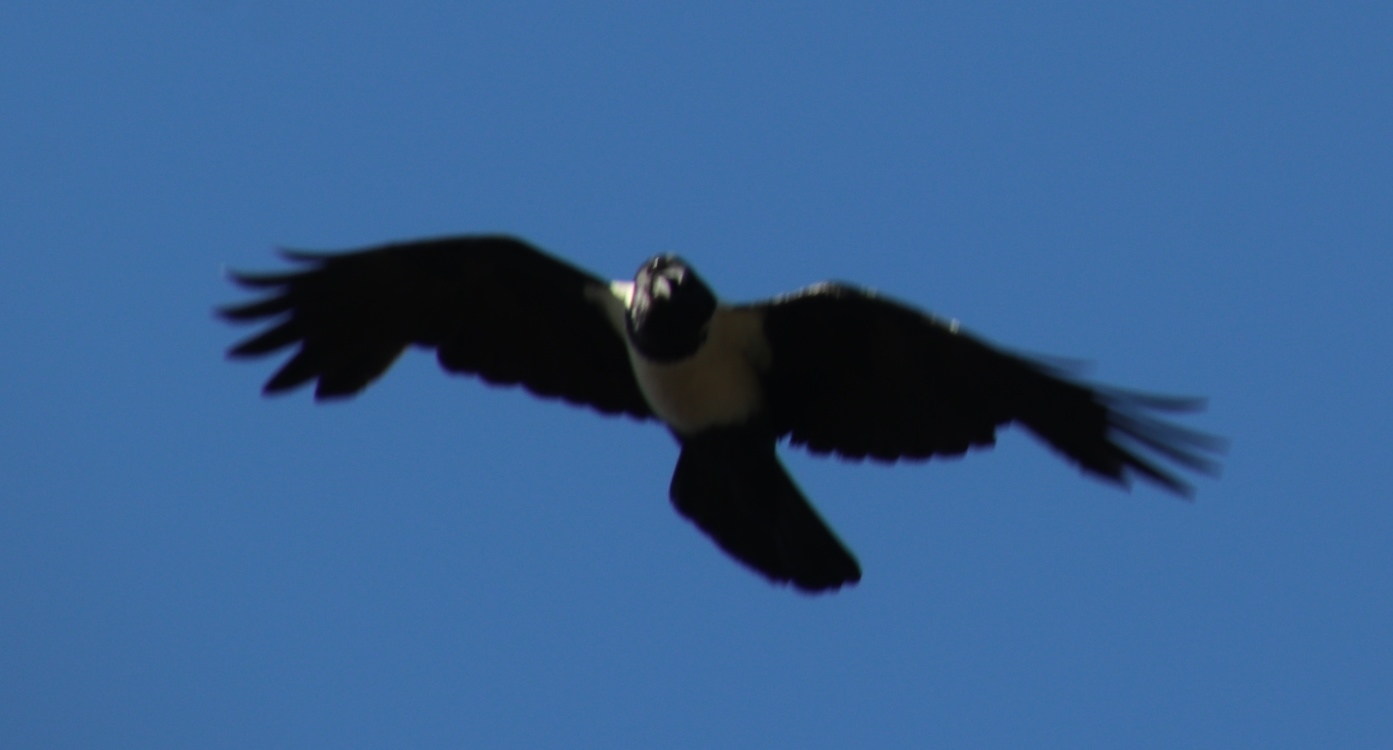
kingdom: Animalia
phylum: Chordata
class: Aves
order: Passeriformes
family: Corvidae
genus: Corvus
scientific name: Corvus albus
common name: Pied crow
